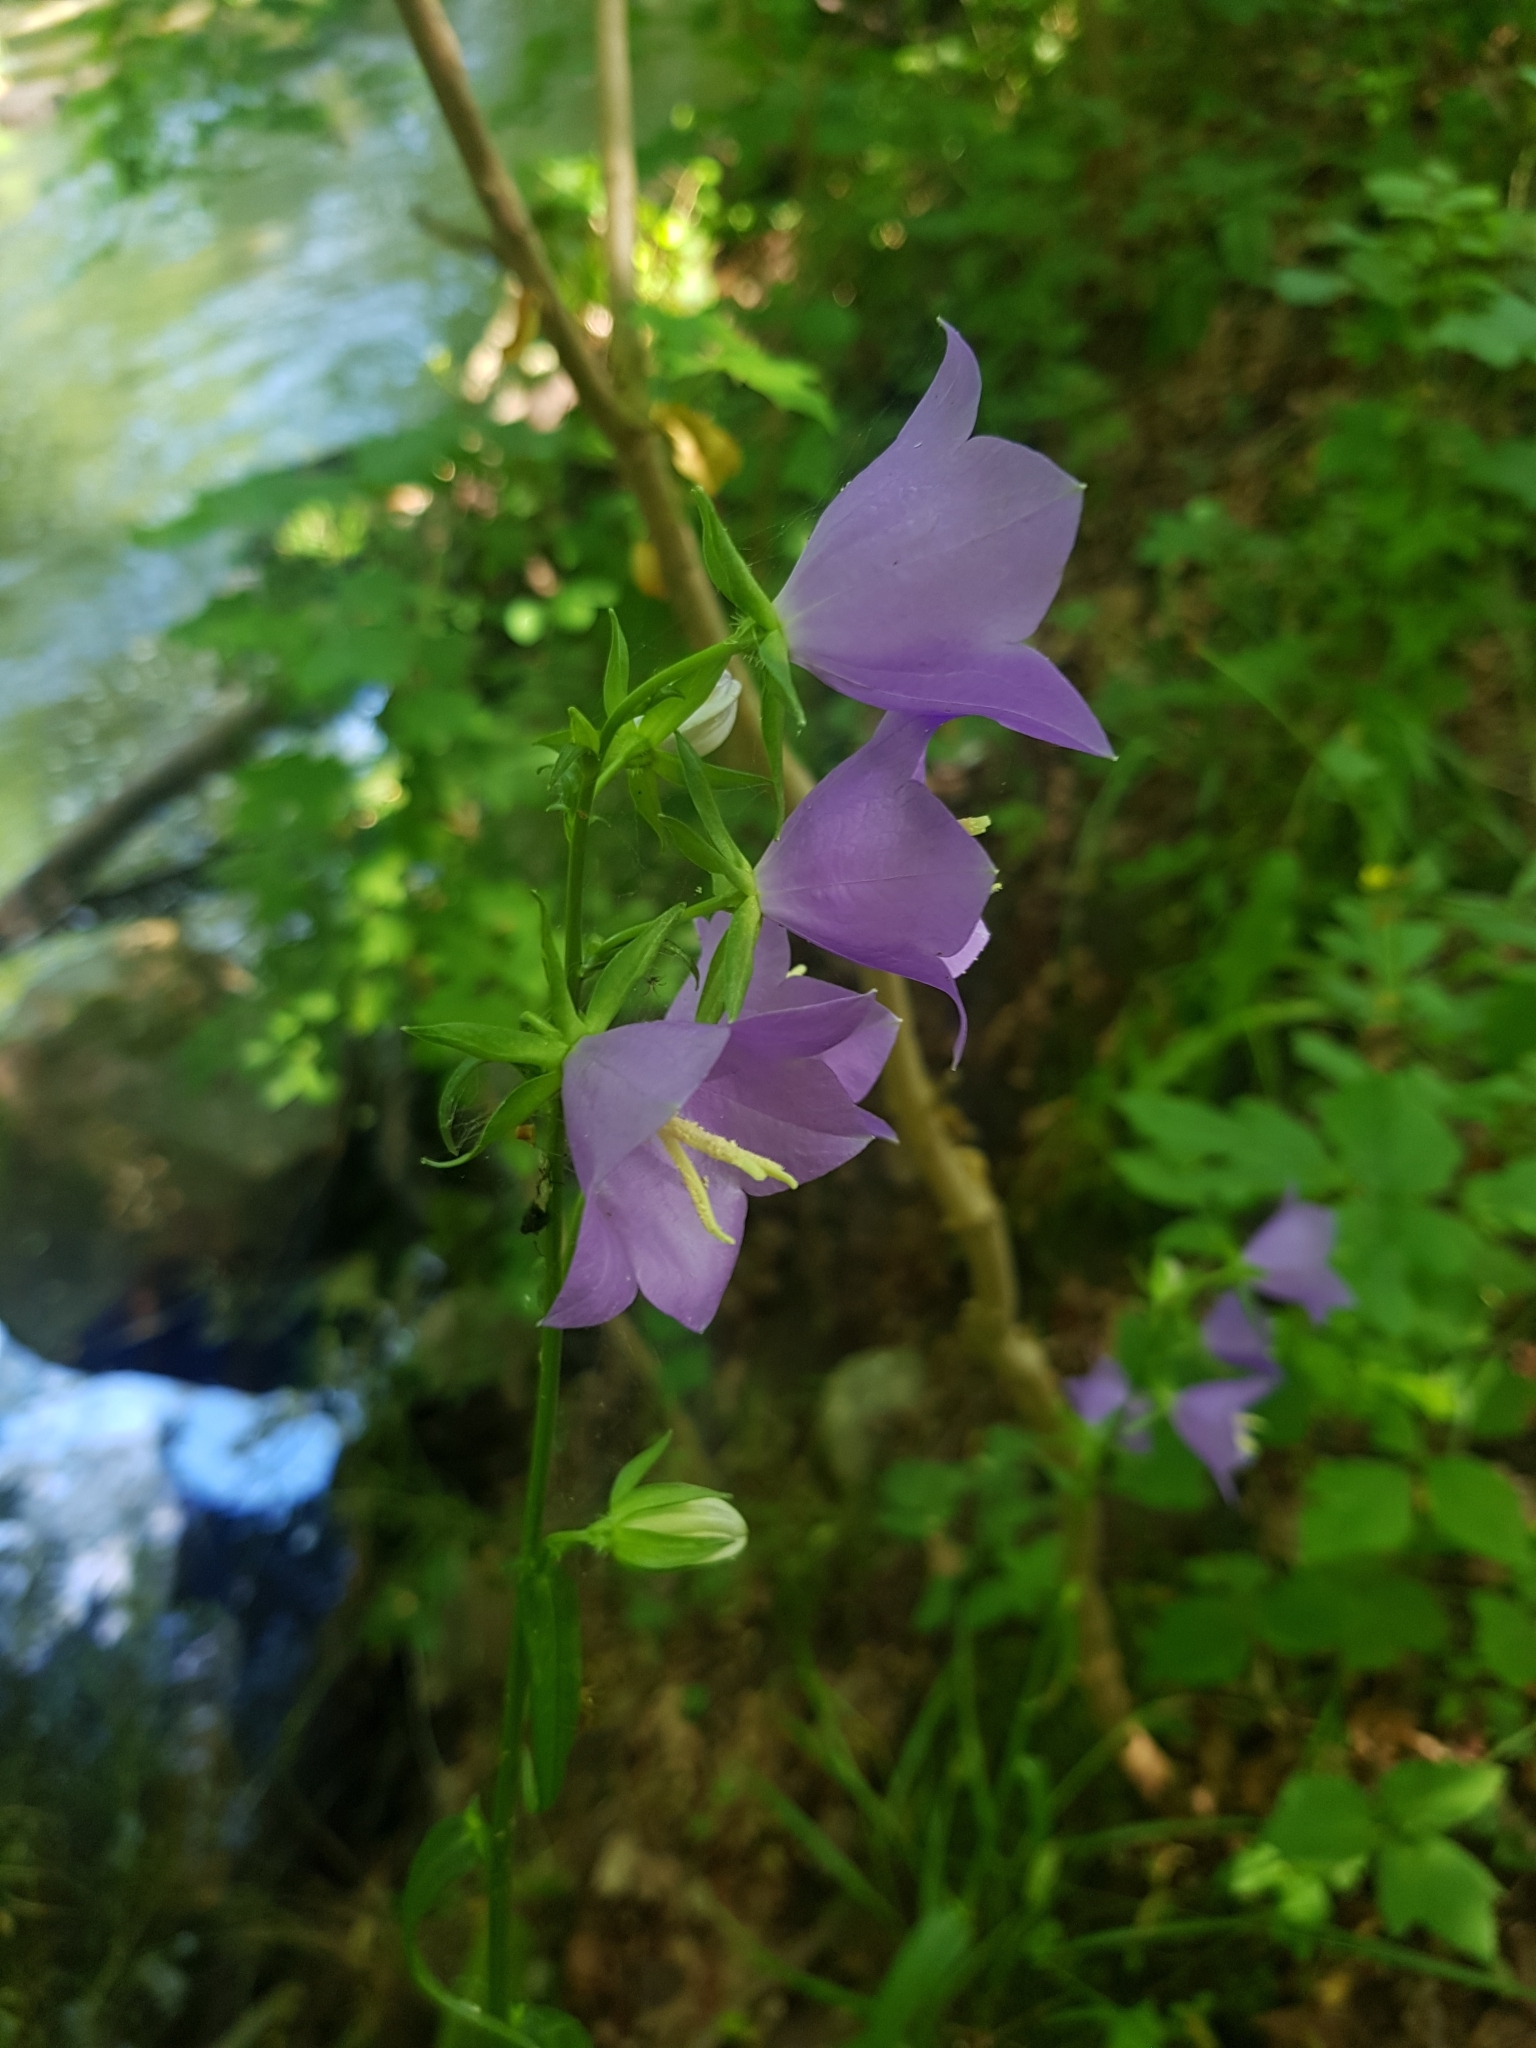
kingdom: Plantae
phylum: Tracheophyta
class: Magnoliopsida
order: Asterales
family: Campanulaceae
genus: Campanula
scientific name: Campanula persicifolia
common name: Peach-leaved bellflower
